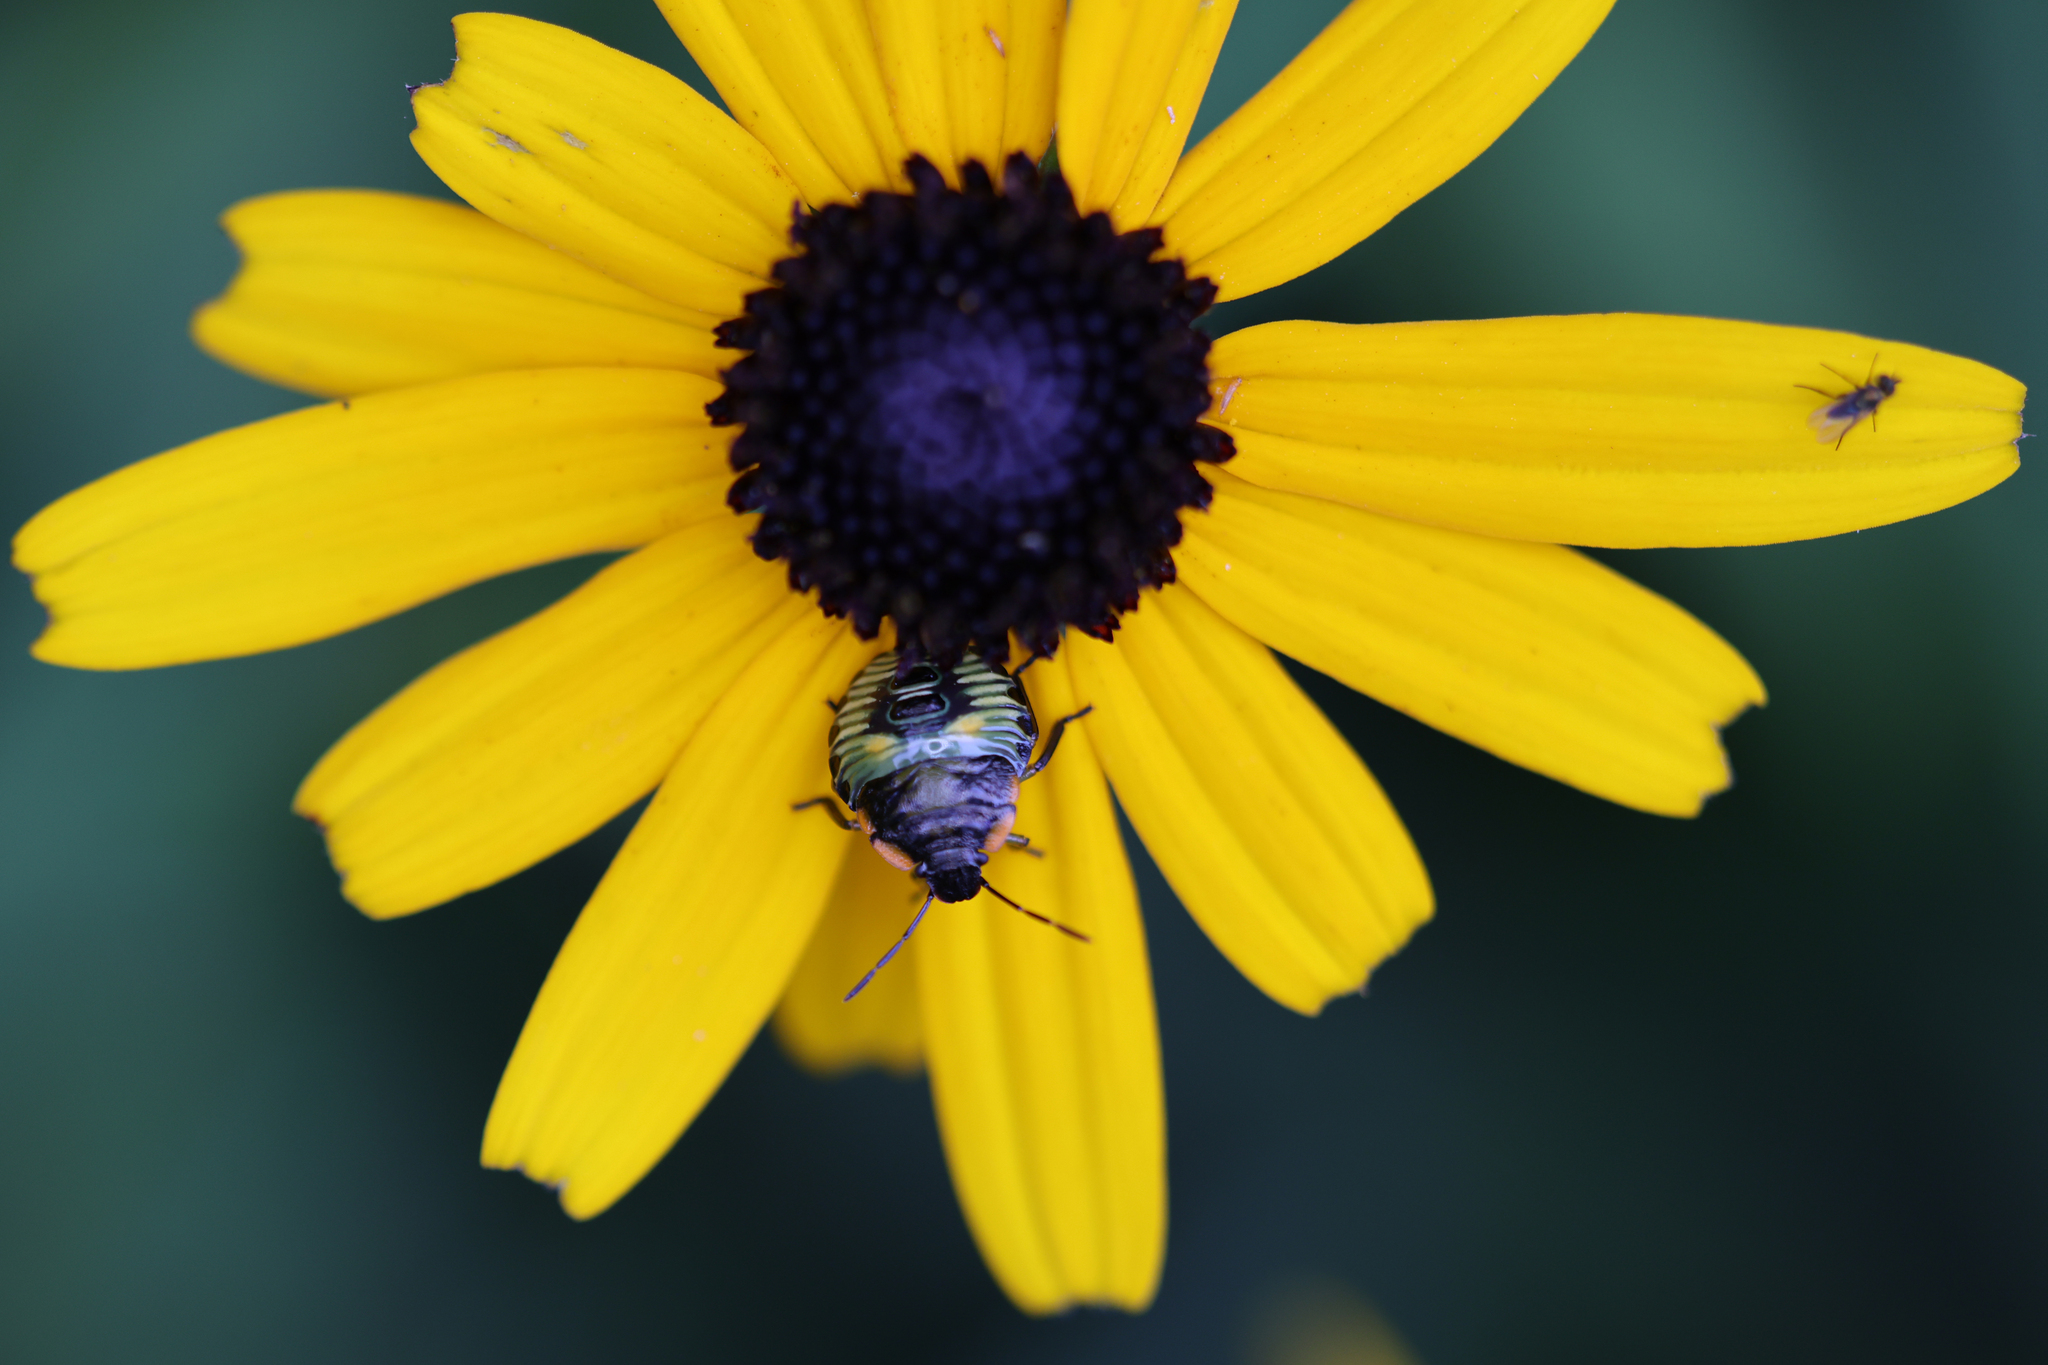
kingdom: Animalia
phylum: Arthropoda
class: Insecta
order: Hemiptera
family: Pentatomidae
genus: Chinavia
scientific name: Chinavia hilaris
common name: Green stink bug
